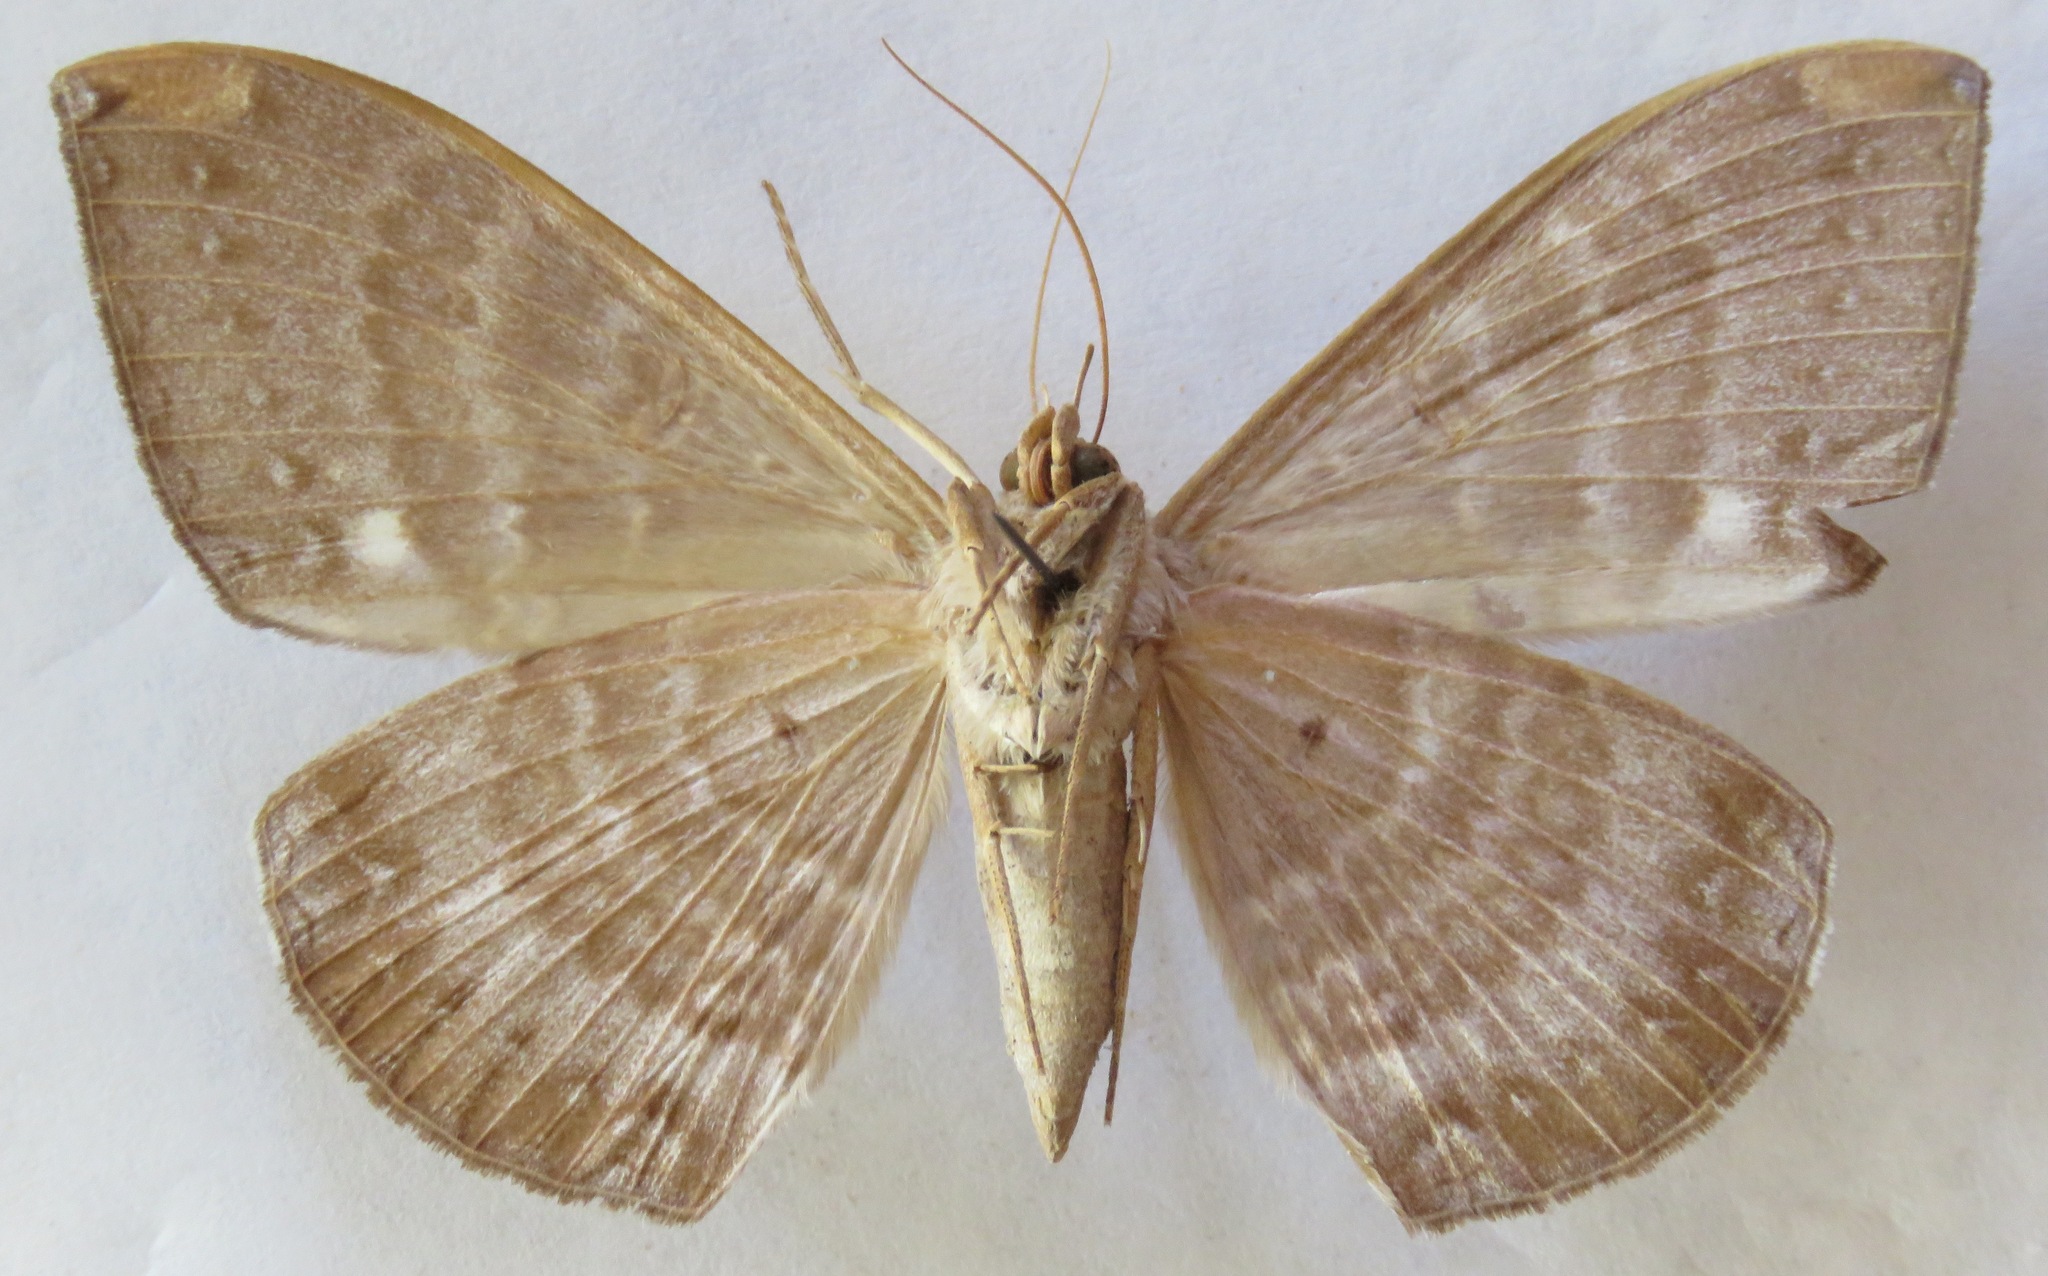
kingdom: Animalia
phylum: Arthropoda
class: Insecta
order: Lepidoptera
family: Erebidae
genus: Hemeroblemma
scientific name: Hemeroblemma dolosa
